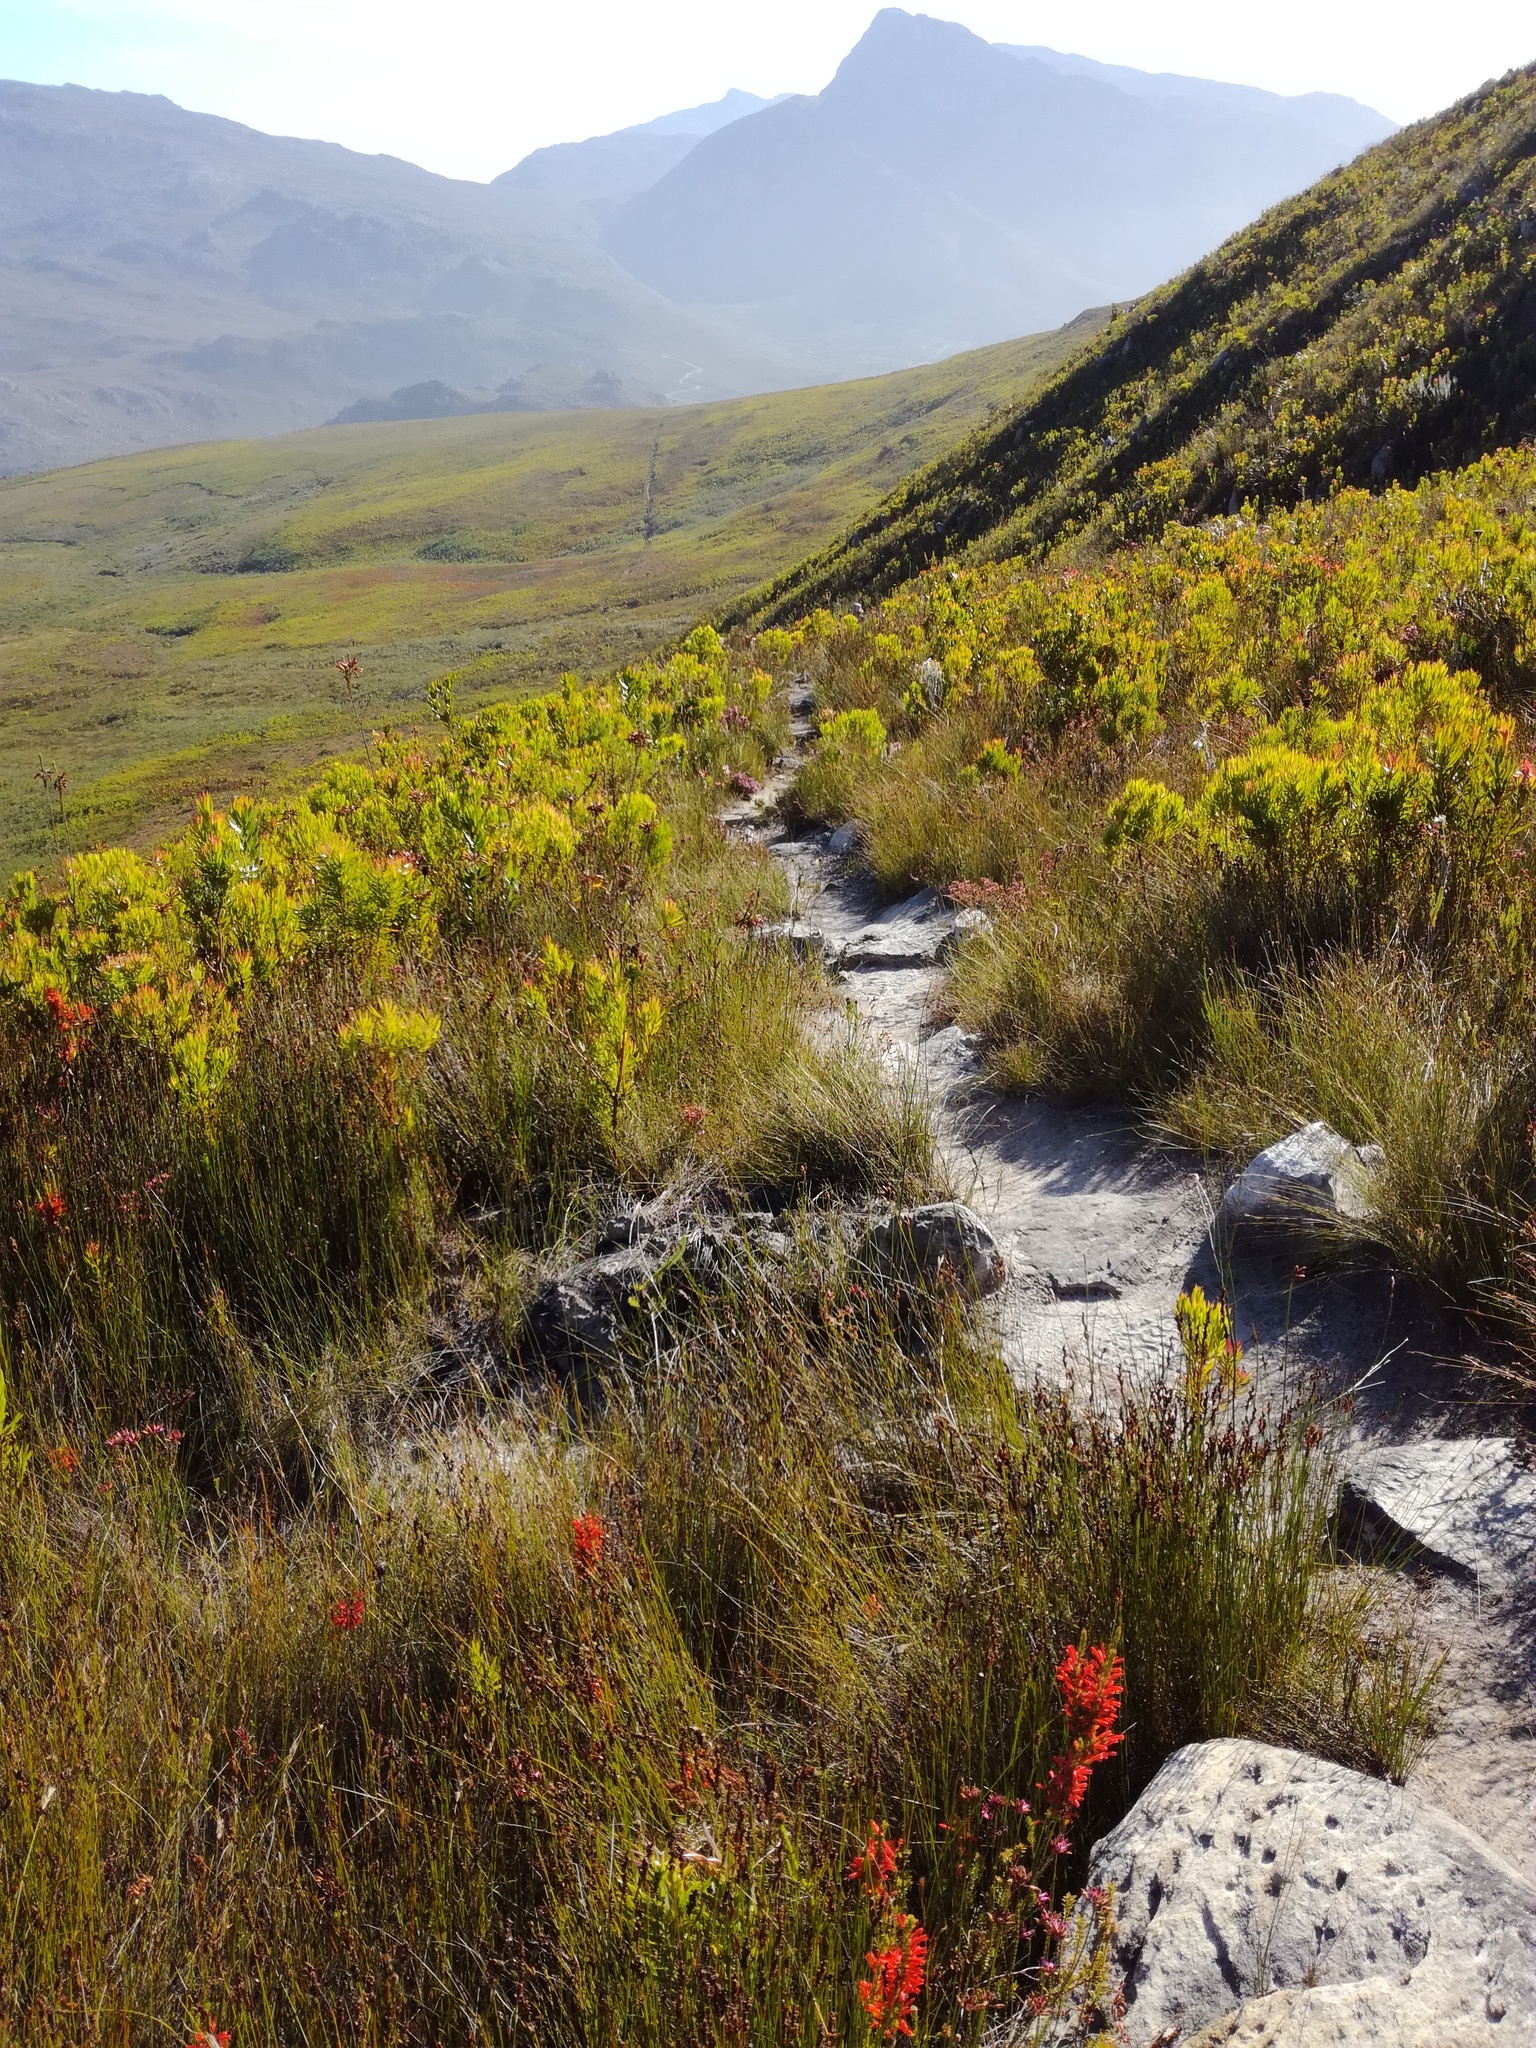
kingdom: Plantae
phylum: Tracheophyta
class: Magnoliopsida
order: Ericales
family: Ericaceae
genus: Erica
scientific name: Erica pillansii
